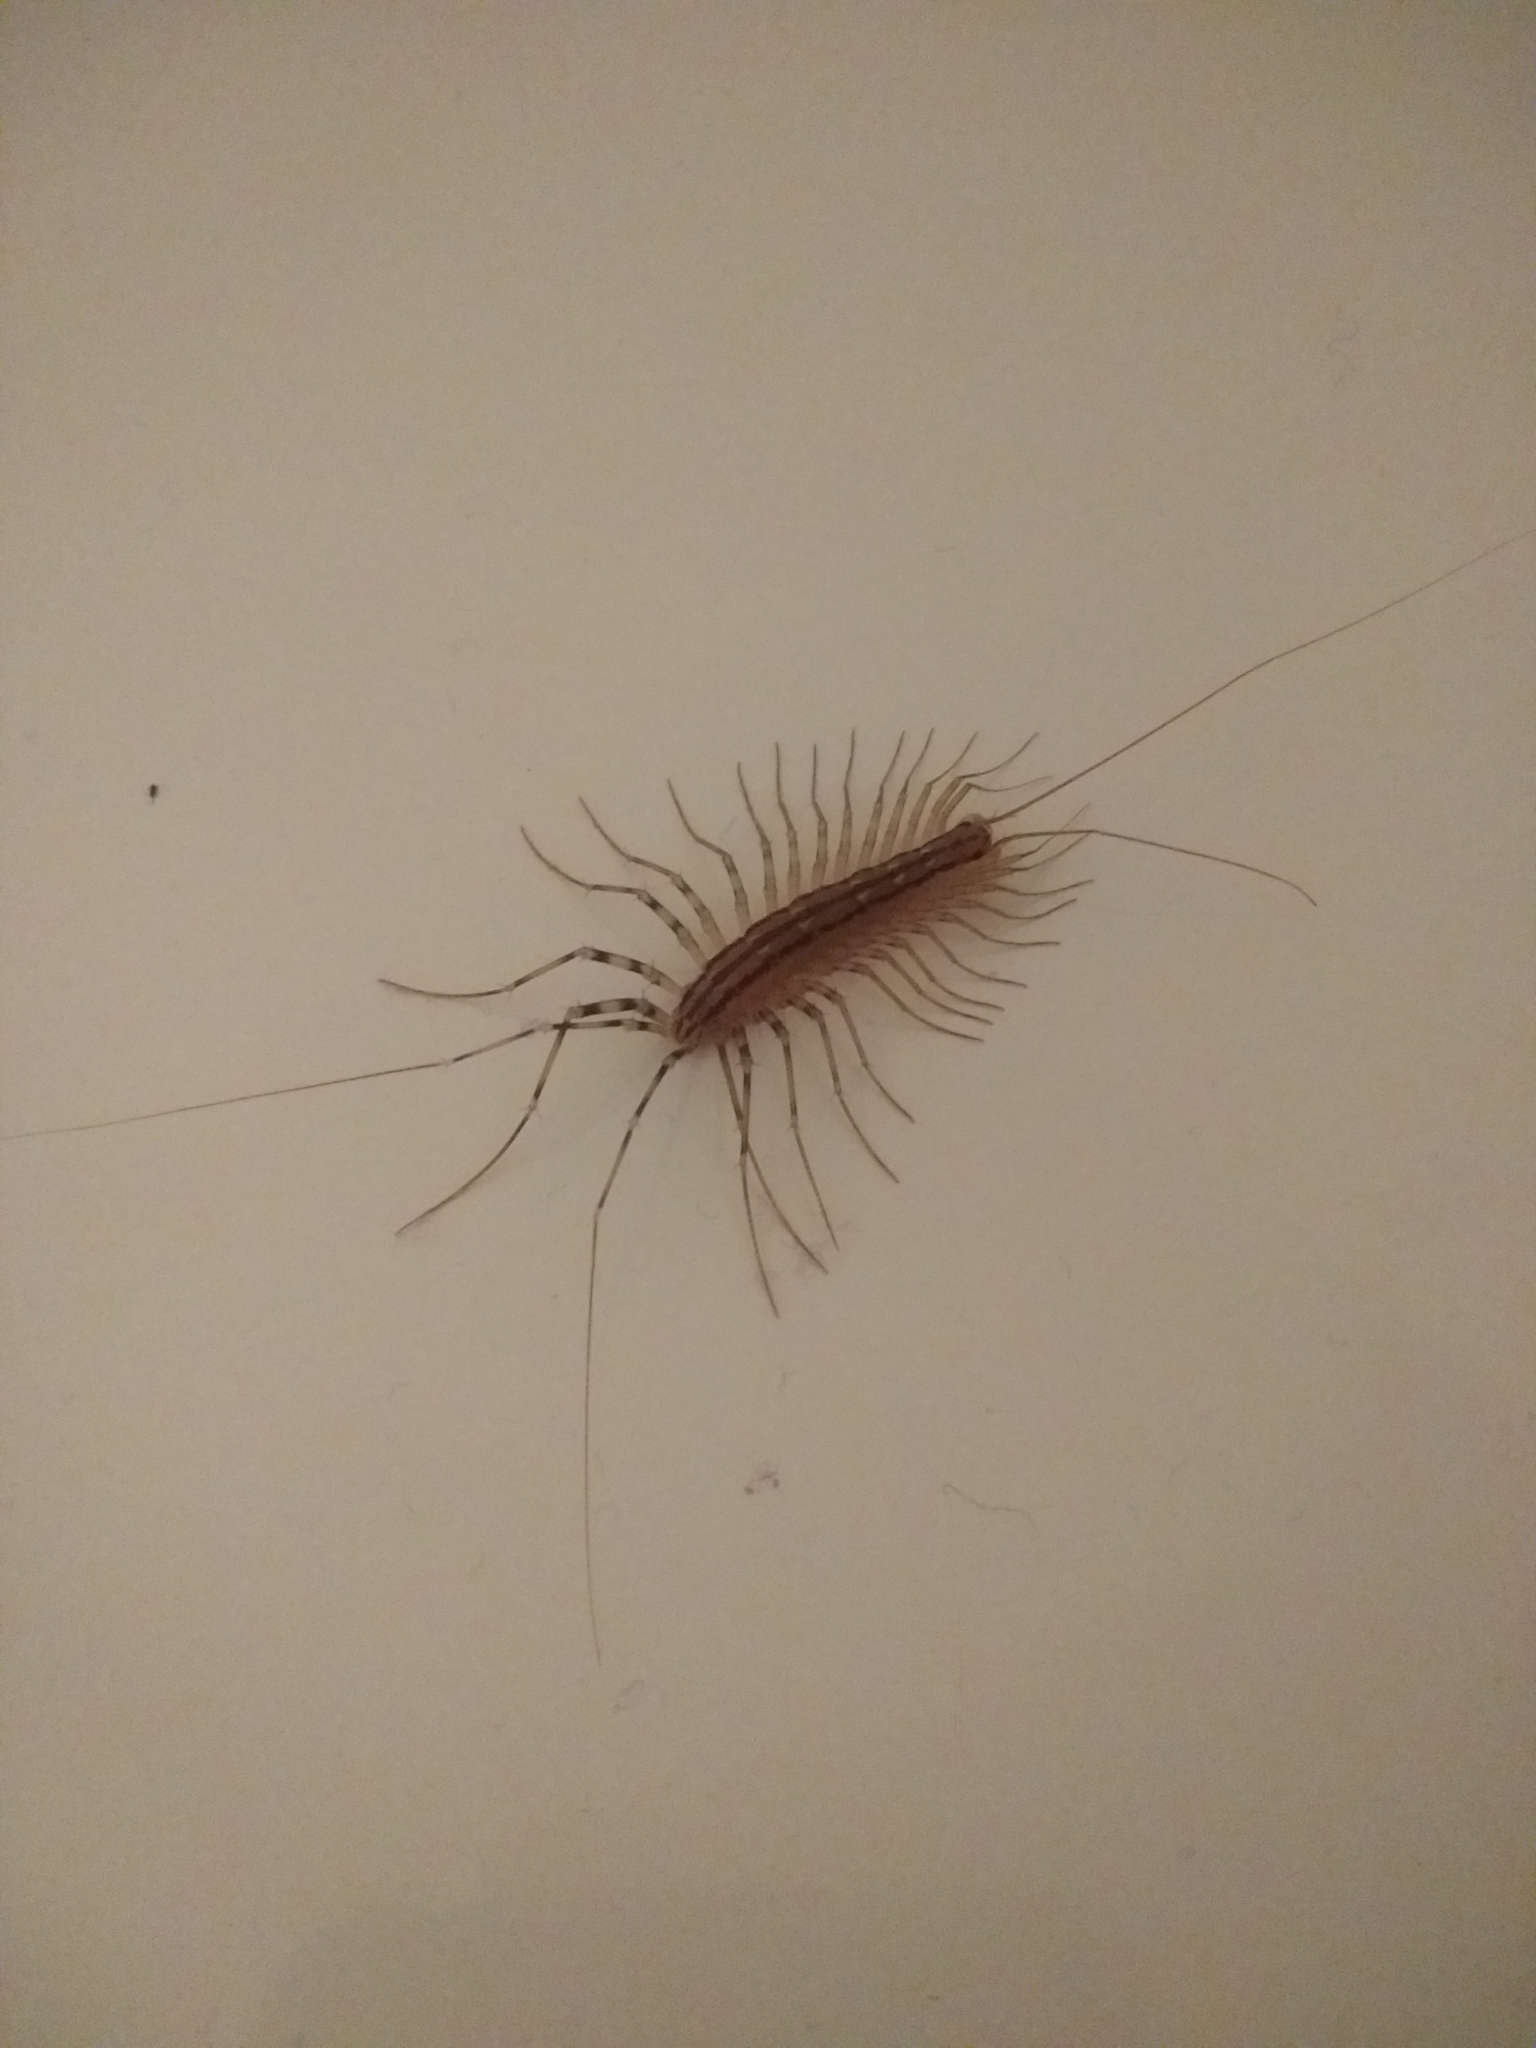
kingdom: Animalia
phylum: Arthropoda
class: Chilopoda
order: Scutigeromorpha
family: Scutigeridae
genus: Scutigera
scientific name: Scutigera coleoptrata
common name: House centipede
